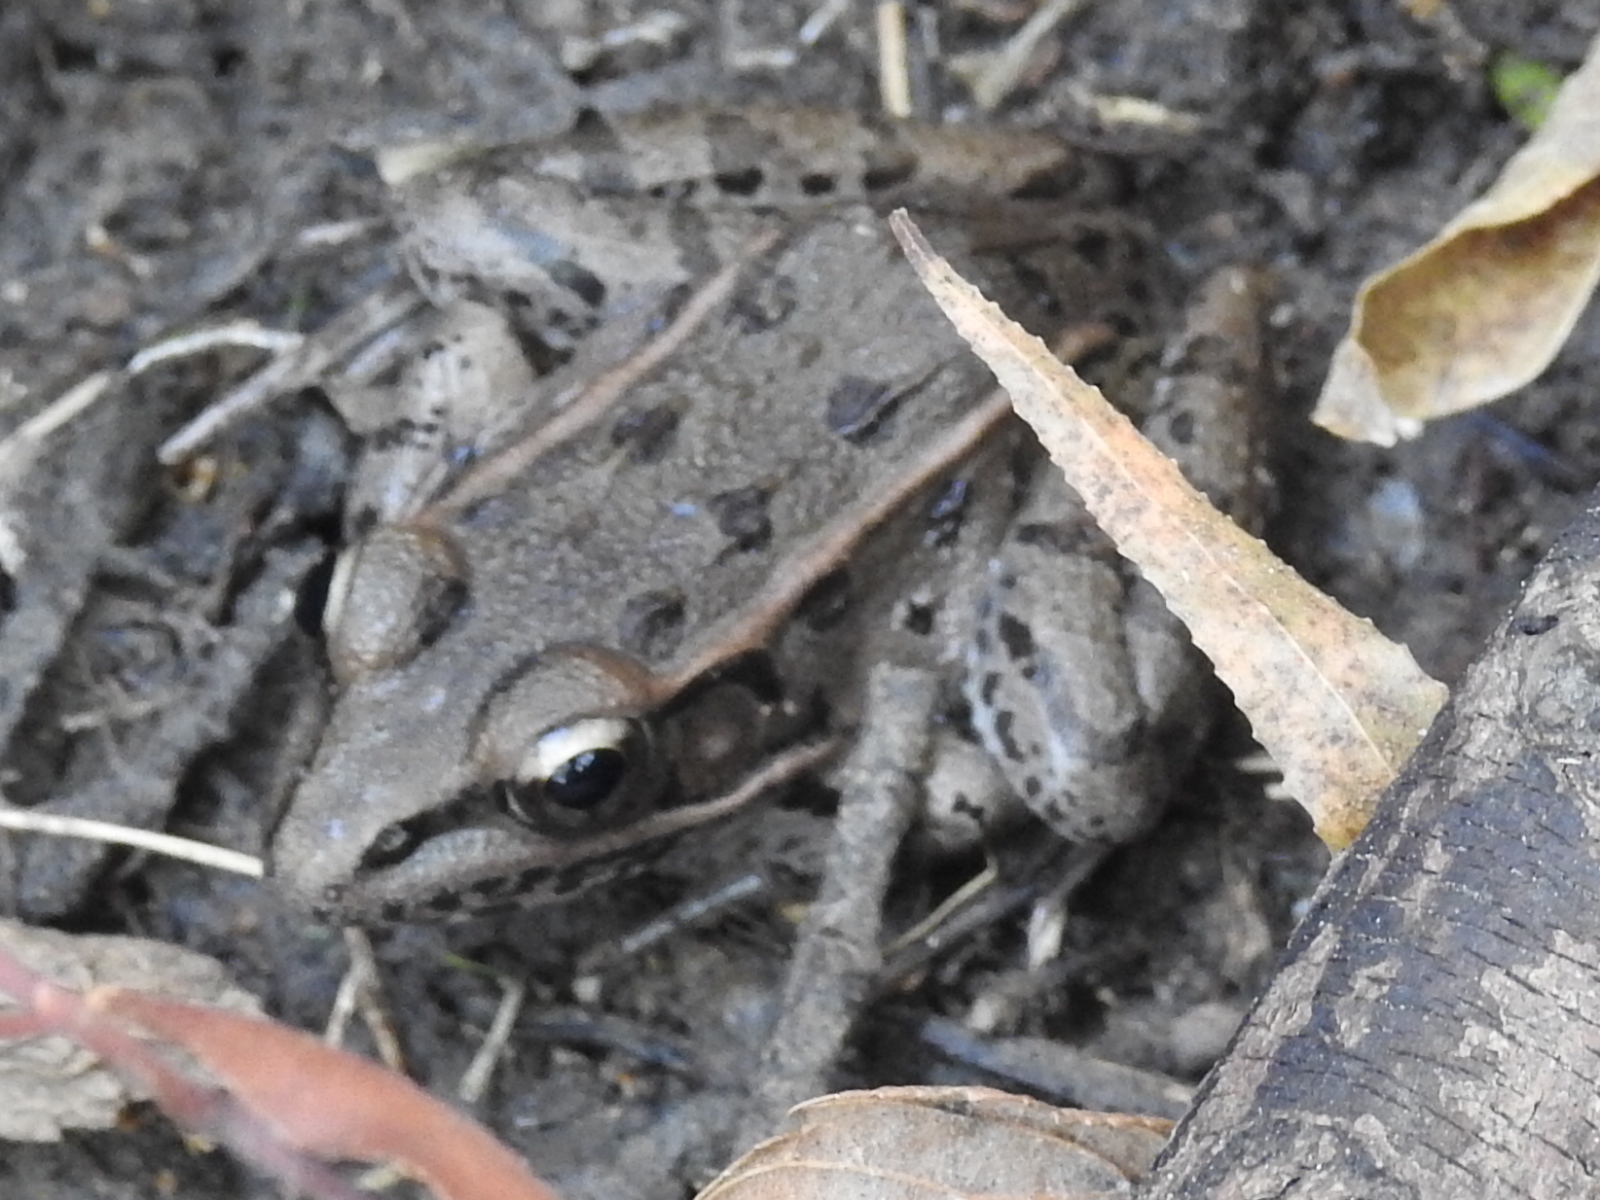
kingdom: Animalia
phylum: Chordata
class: Amphibia
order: Anura
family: Ranidae
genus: Lithobates
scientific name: Lithobates sphenocephalus
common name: Southern leopard frog
